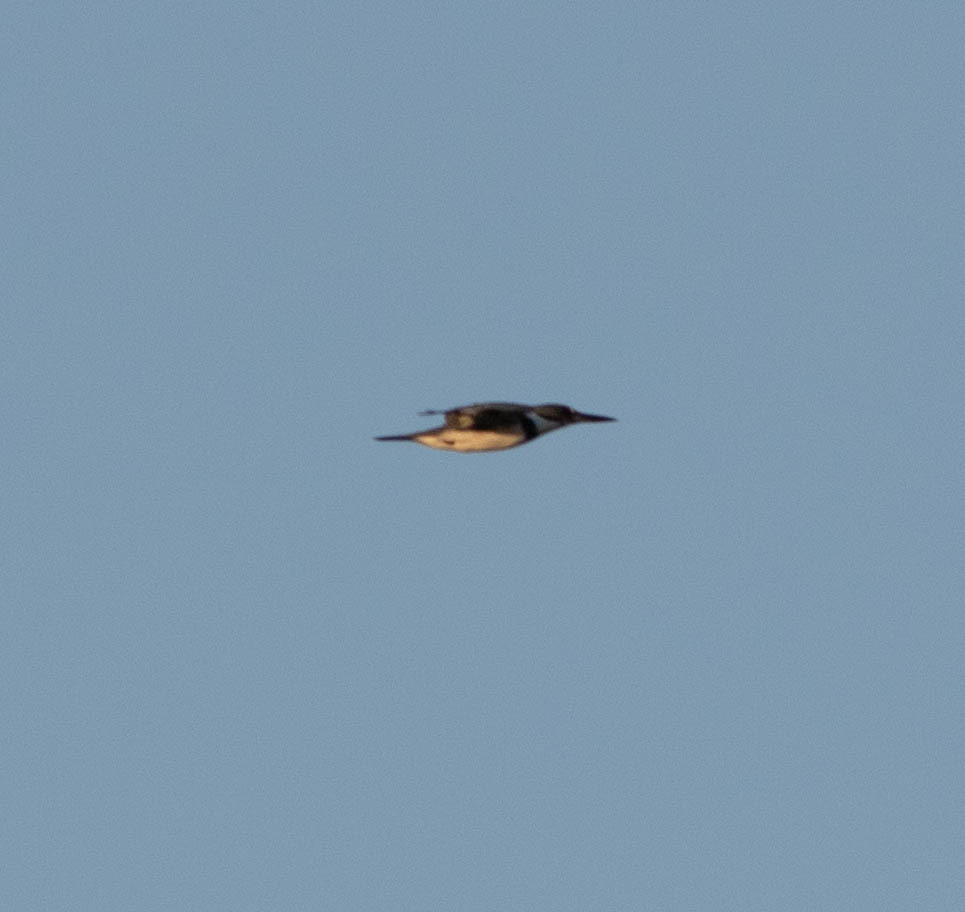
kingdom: Animalia
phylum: Chordata
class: Aves
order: Coraciiformes
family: Alcedinidae
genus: Megaceryle
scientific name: Megaceryle alcyon
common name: Belted kingfisher
